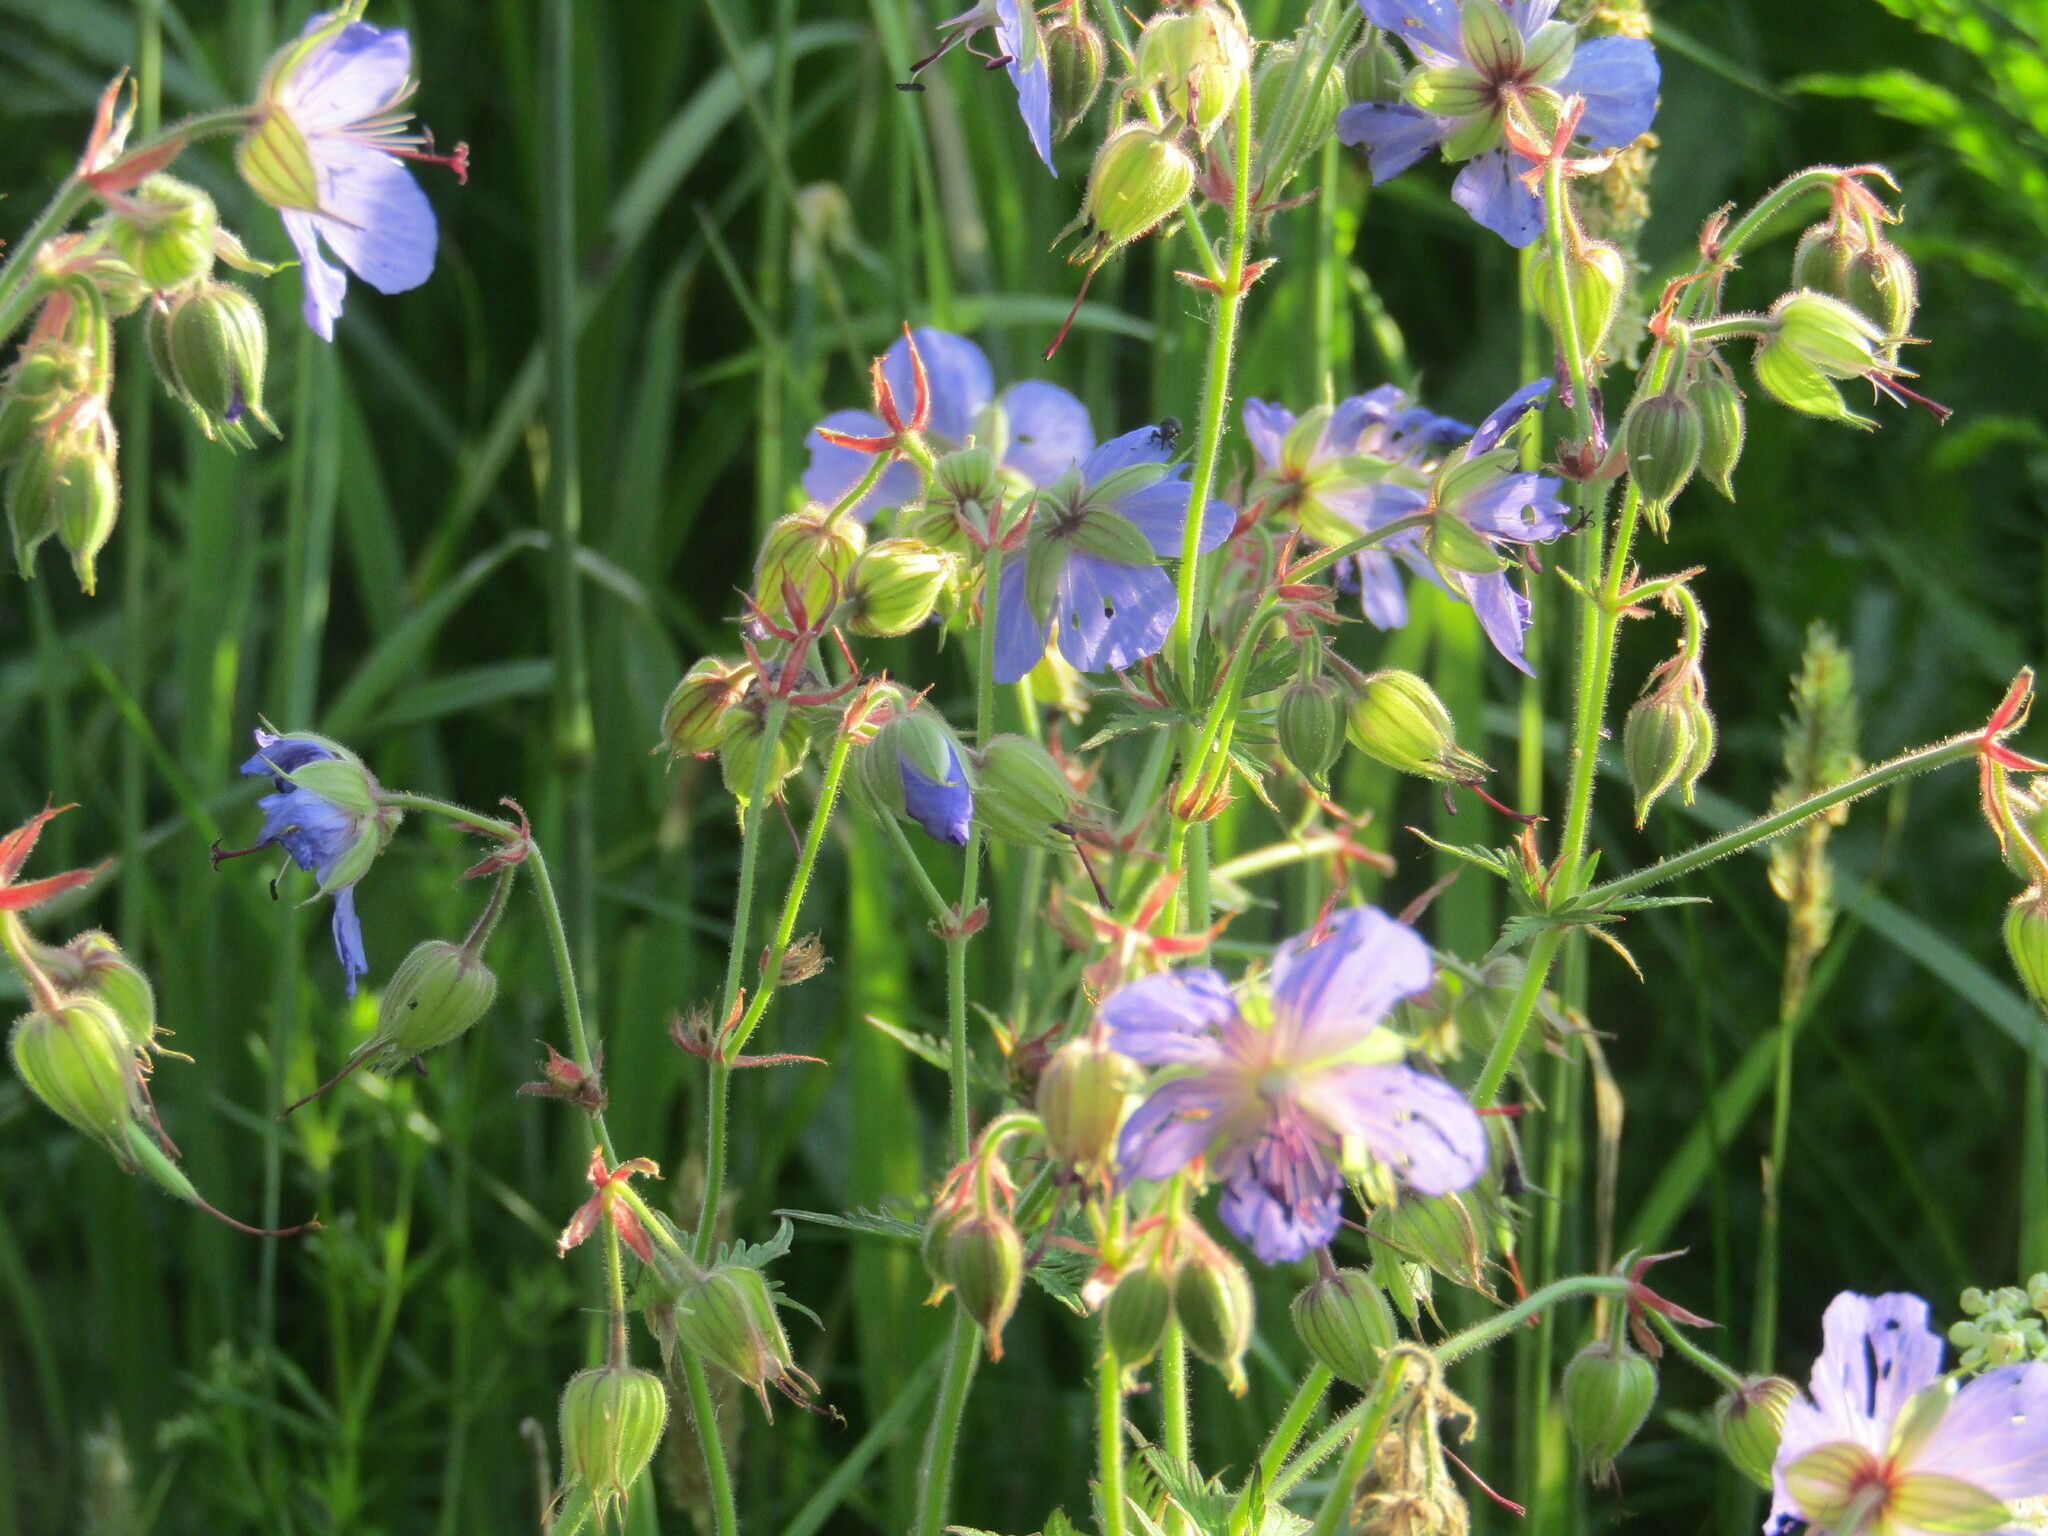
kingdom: Plantae
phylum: Tracheophyta
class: Magnoliopsida
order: Geraniales
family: Geraniaceae
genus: Geranium
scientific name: Geranium pratense
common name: Meadow crane's-bill
